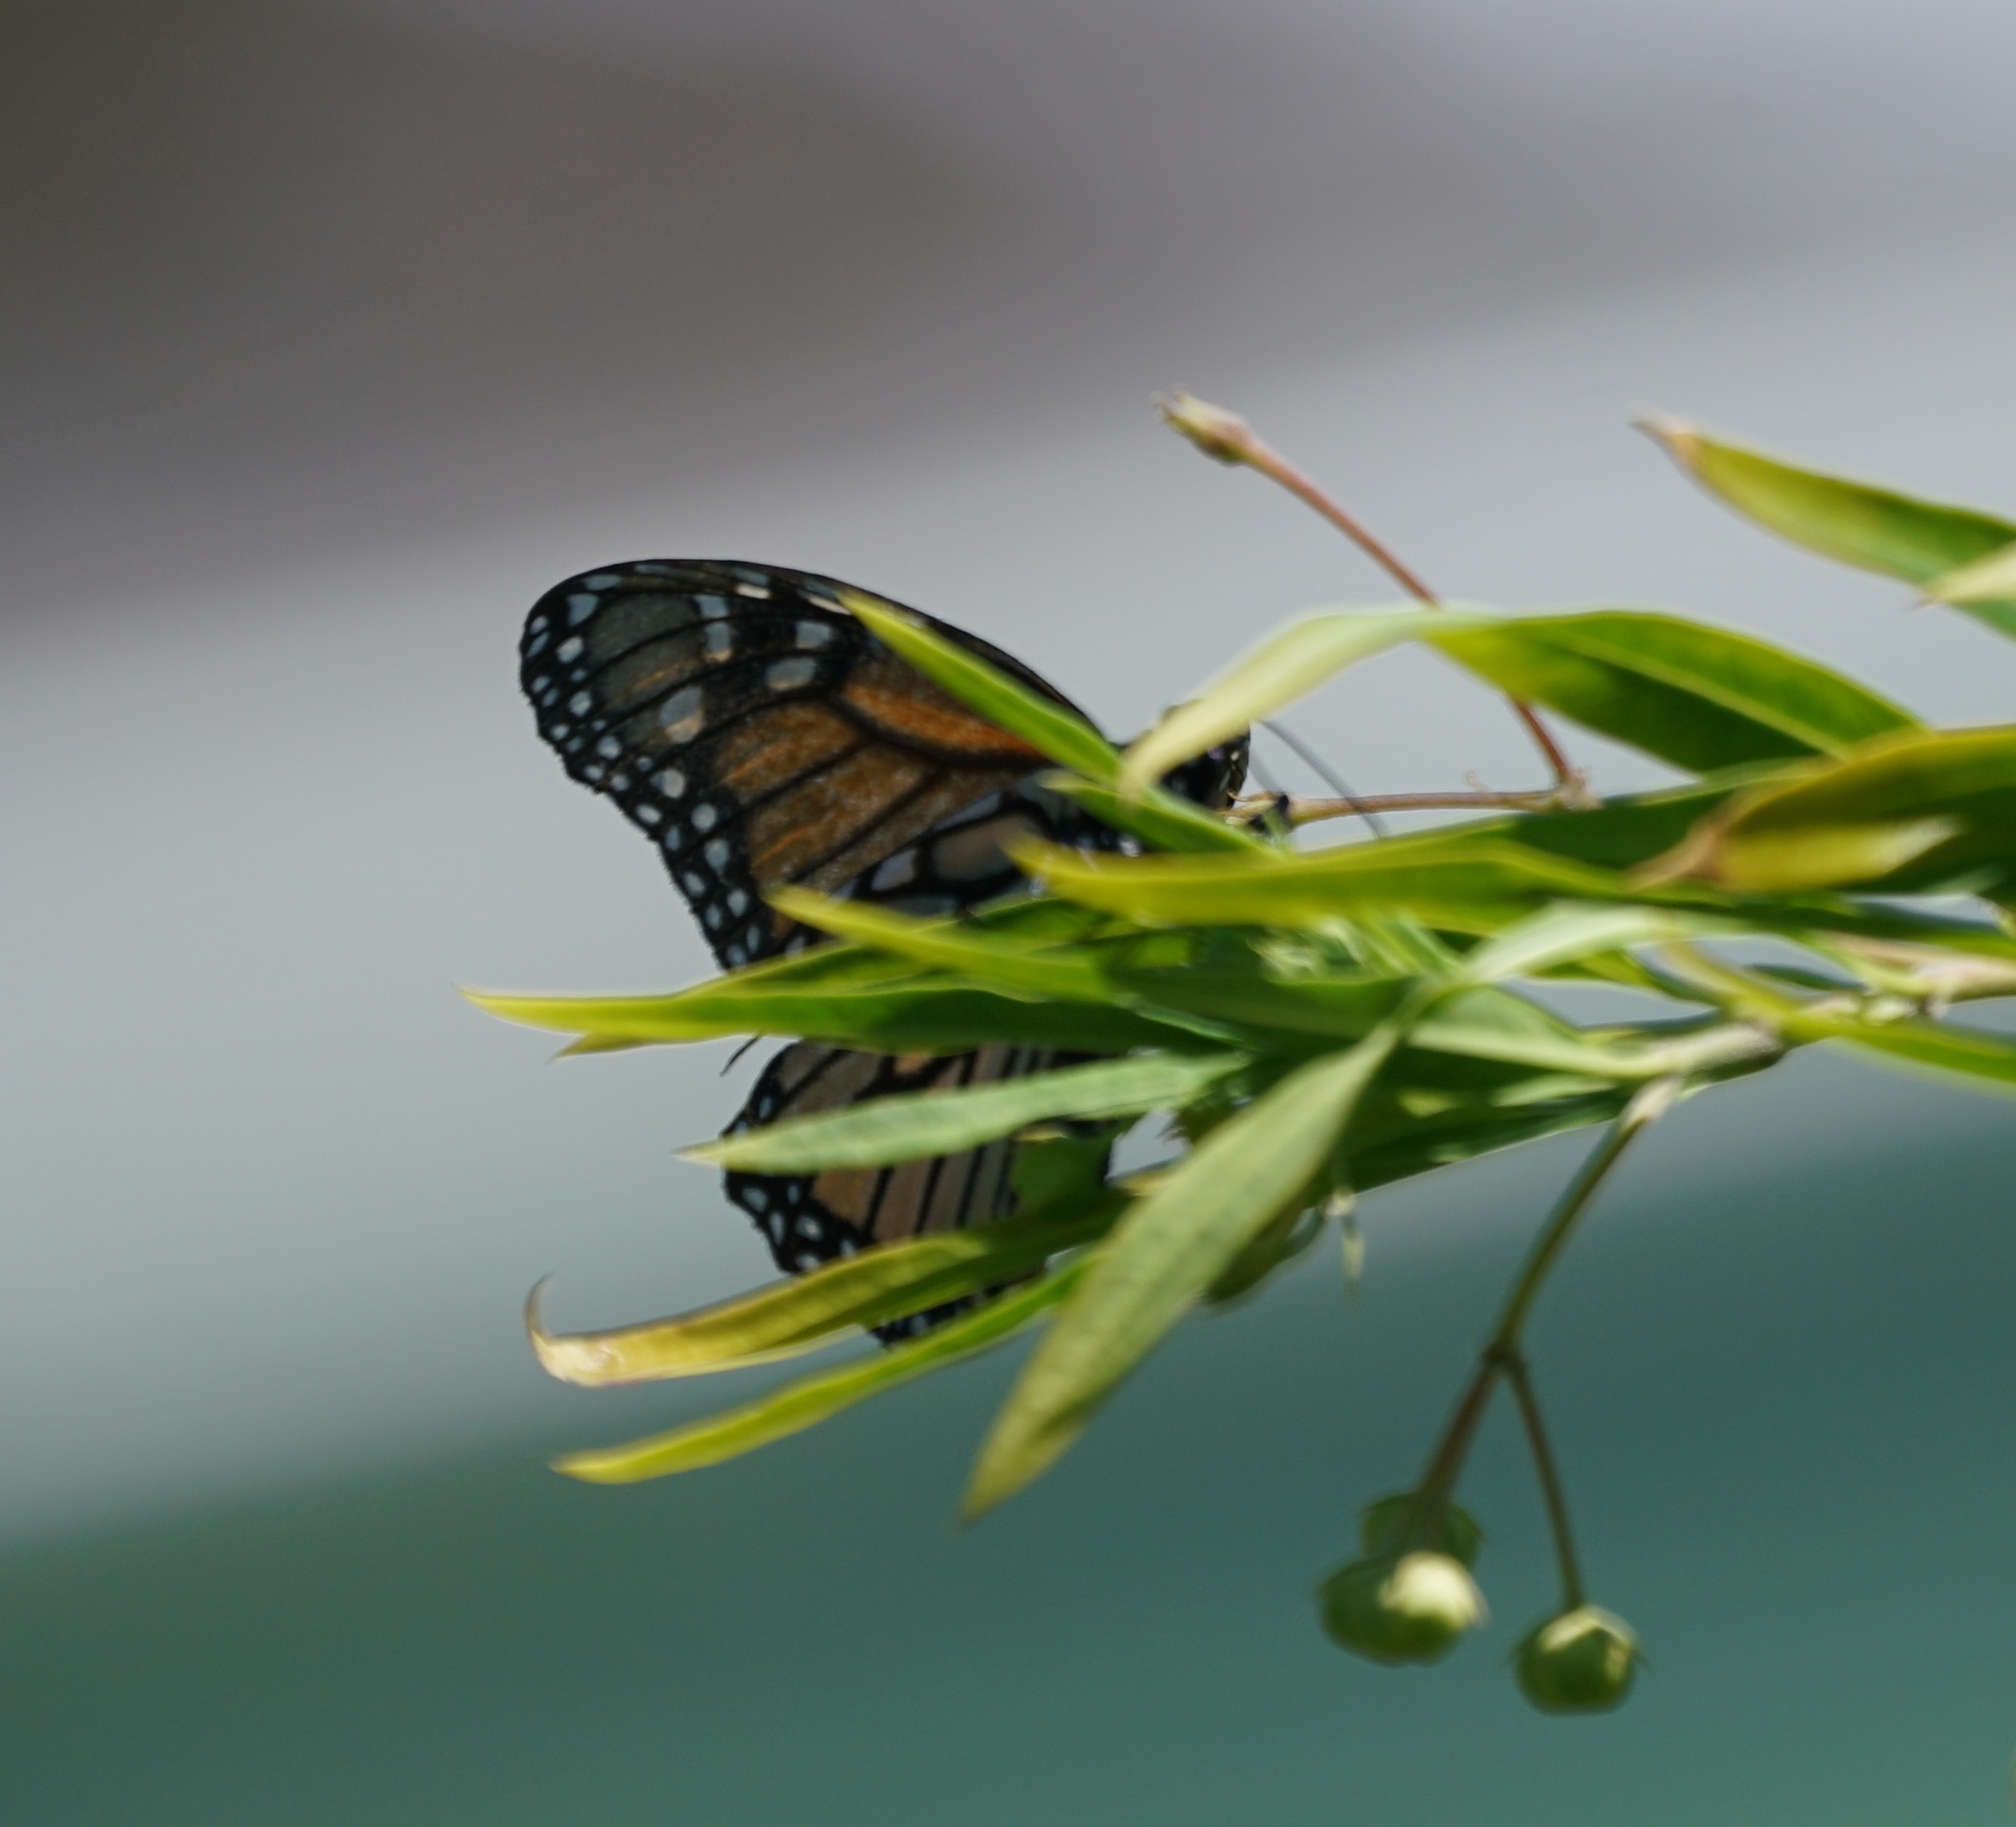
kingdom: Animalia
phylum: Arthropoda
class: Insecta
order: Lepidoptera
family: Nymphalidae
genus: Danaus
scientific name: Danaus plexippus
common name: Monarch
